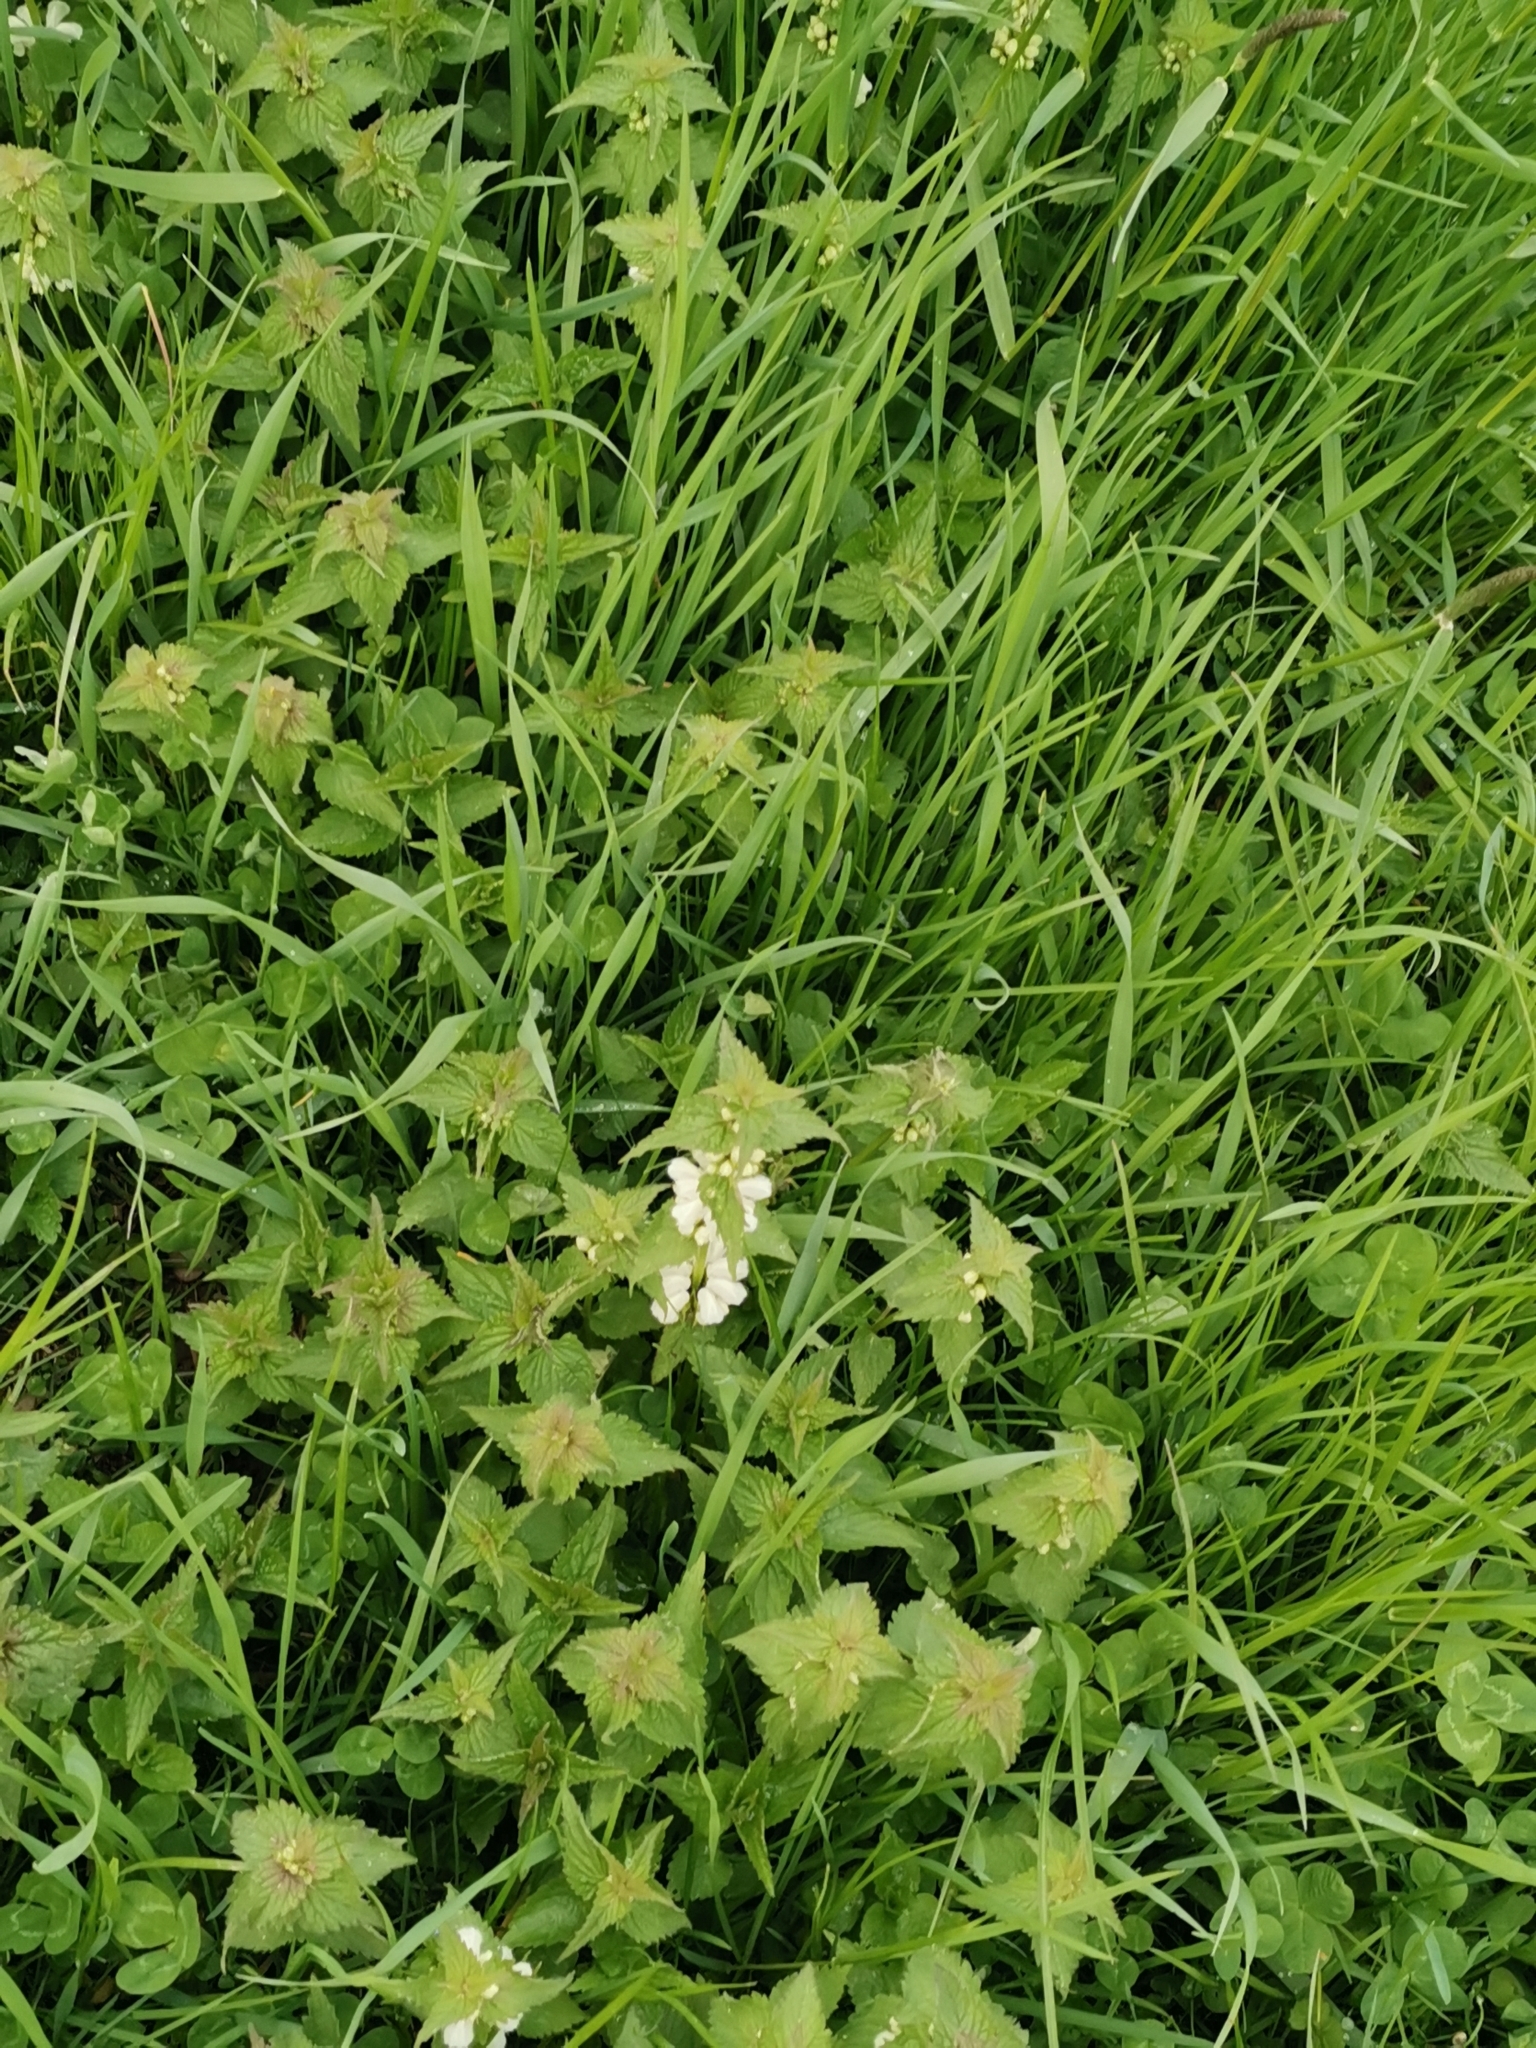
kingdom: Plantae
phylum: Tracheophyta
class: Magnoliopsida
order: Lamiales
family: Lamiaceae
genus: Lamium
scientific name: Lamium album
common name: White dead-nettle
